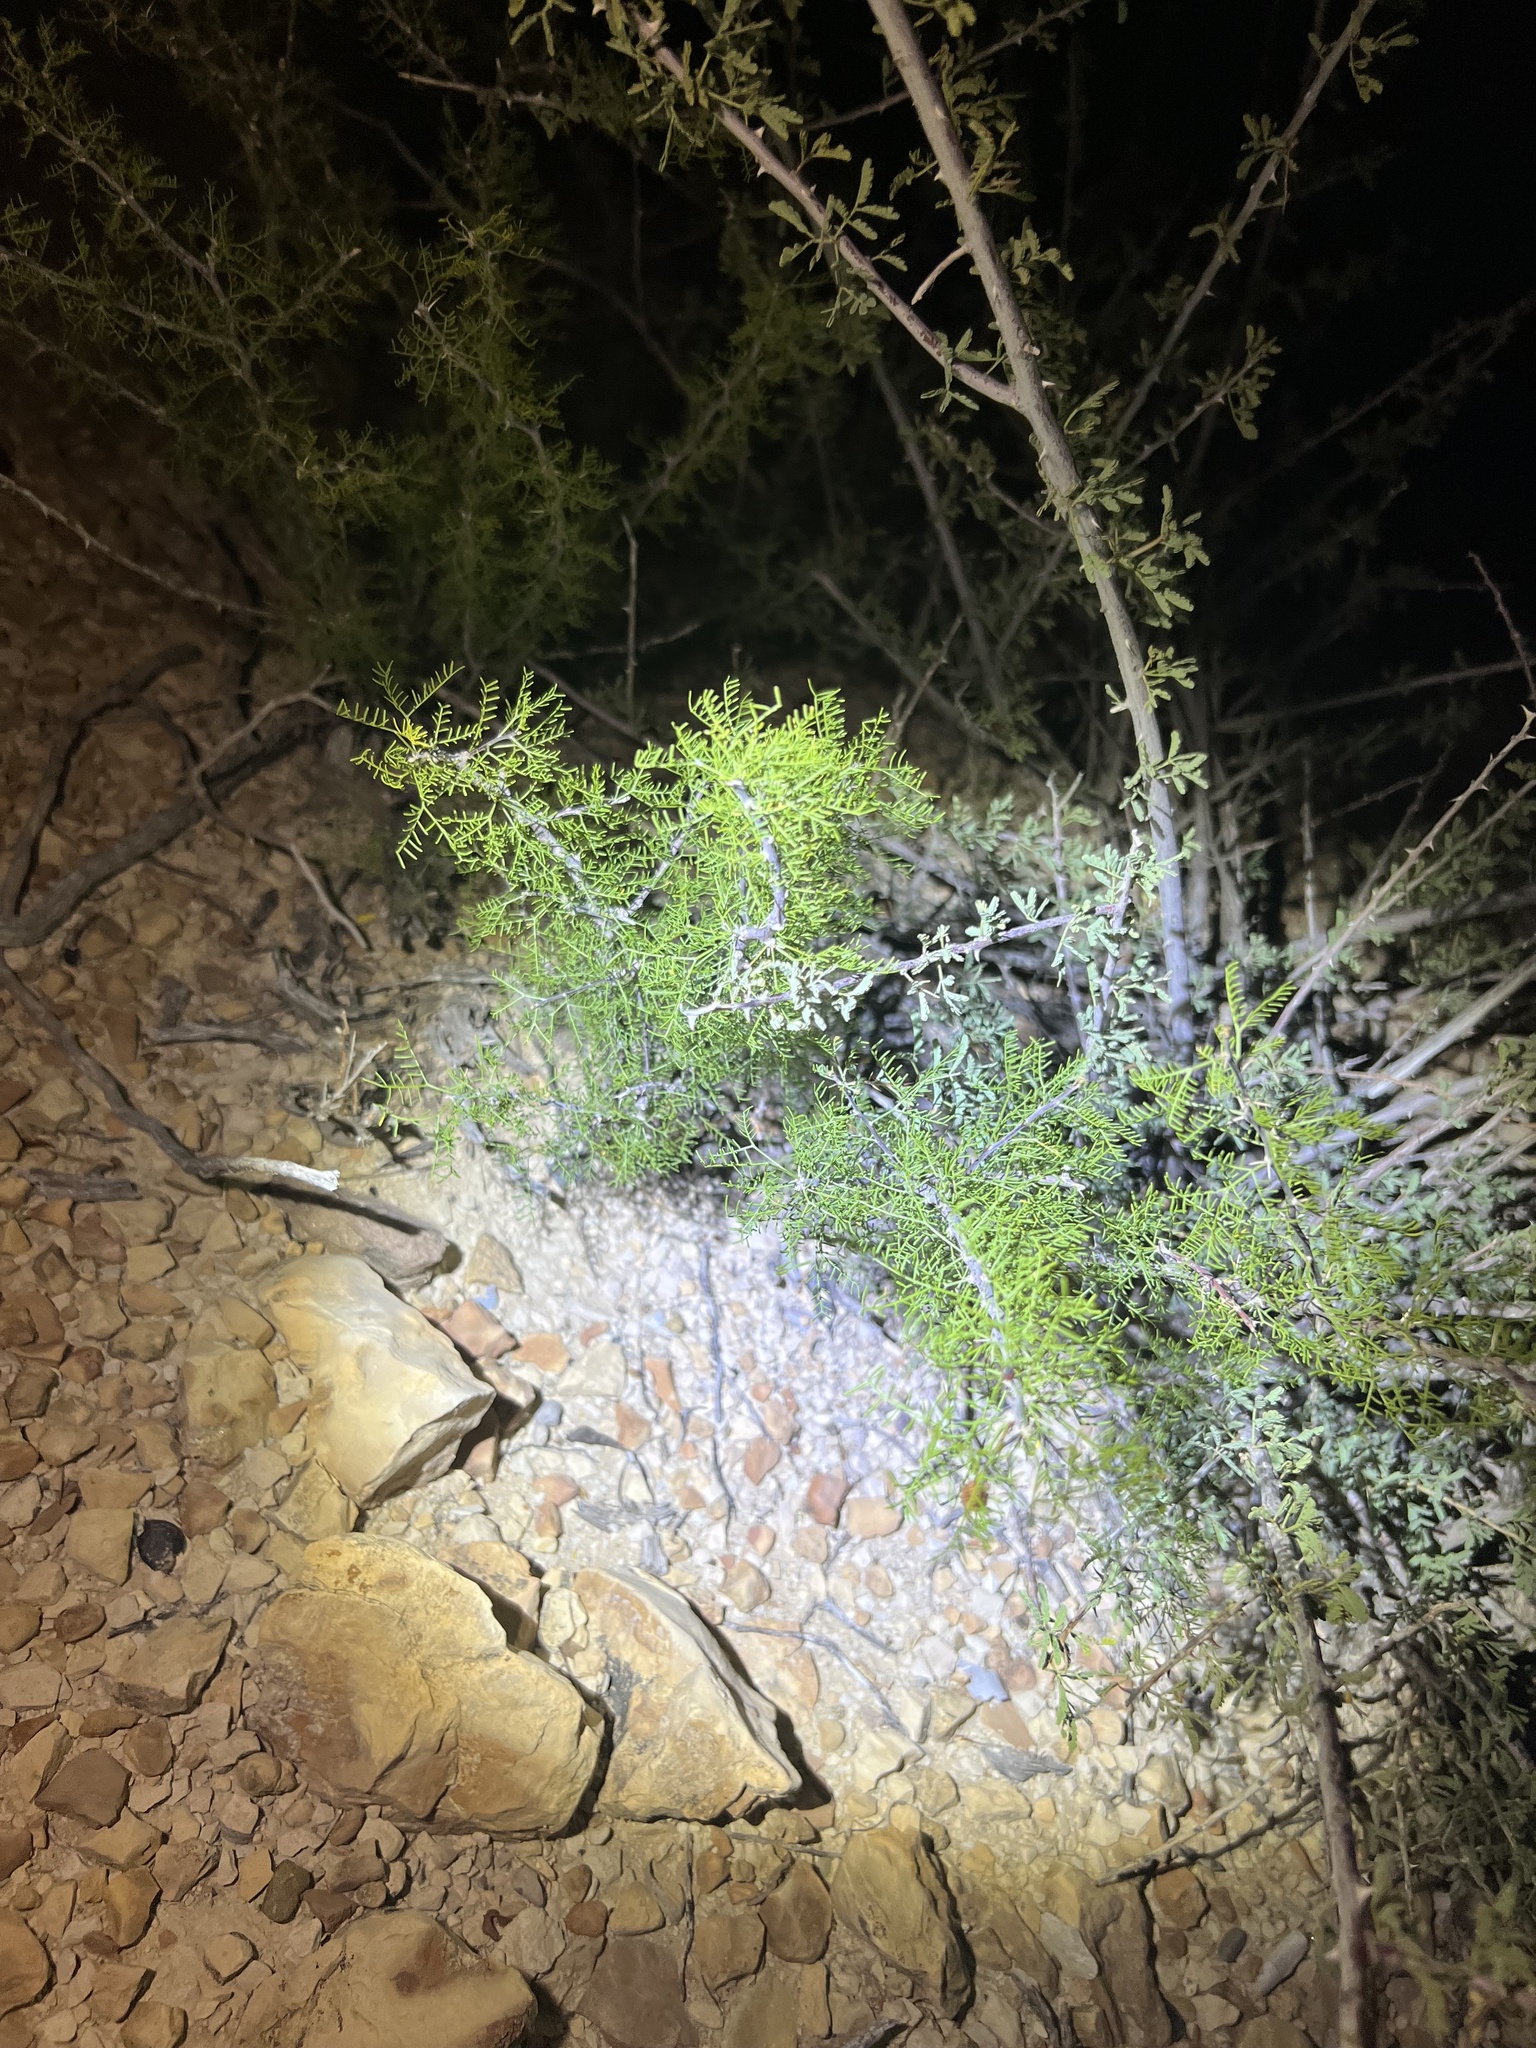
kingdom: Plantae
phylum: Tracheophyta
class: Magnoliopsida
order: Fabales
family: Fabaceae
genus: Vachellia
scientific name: Vachellia schottii
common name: Schott acacia
